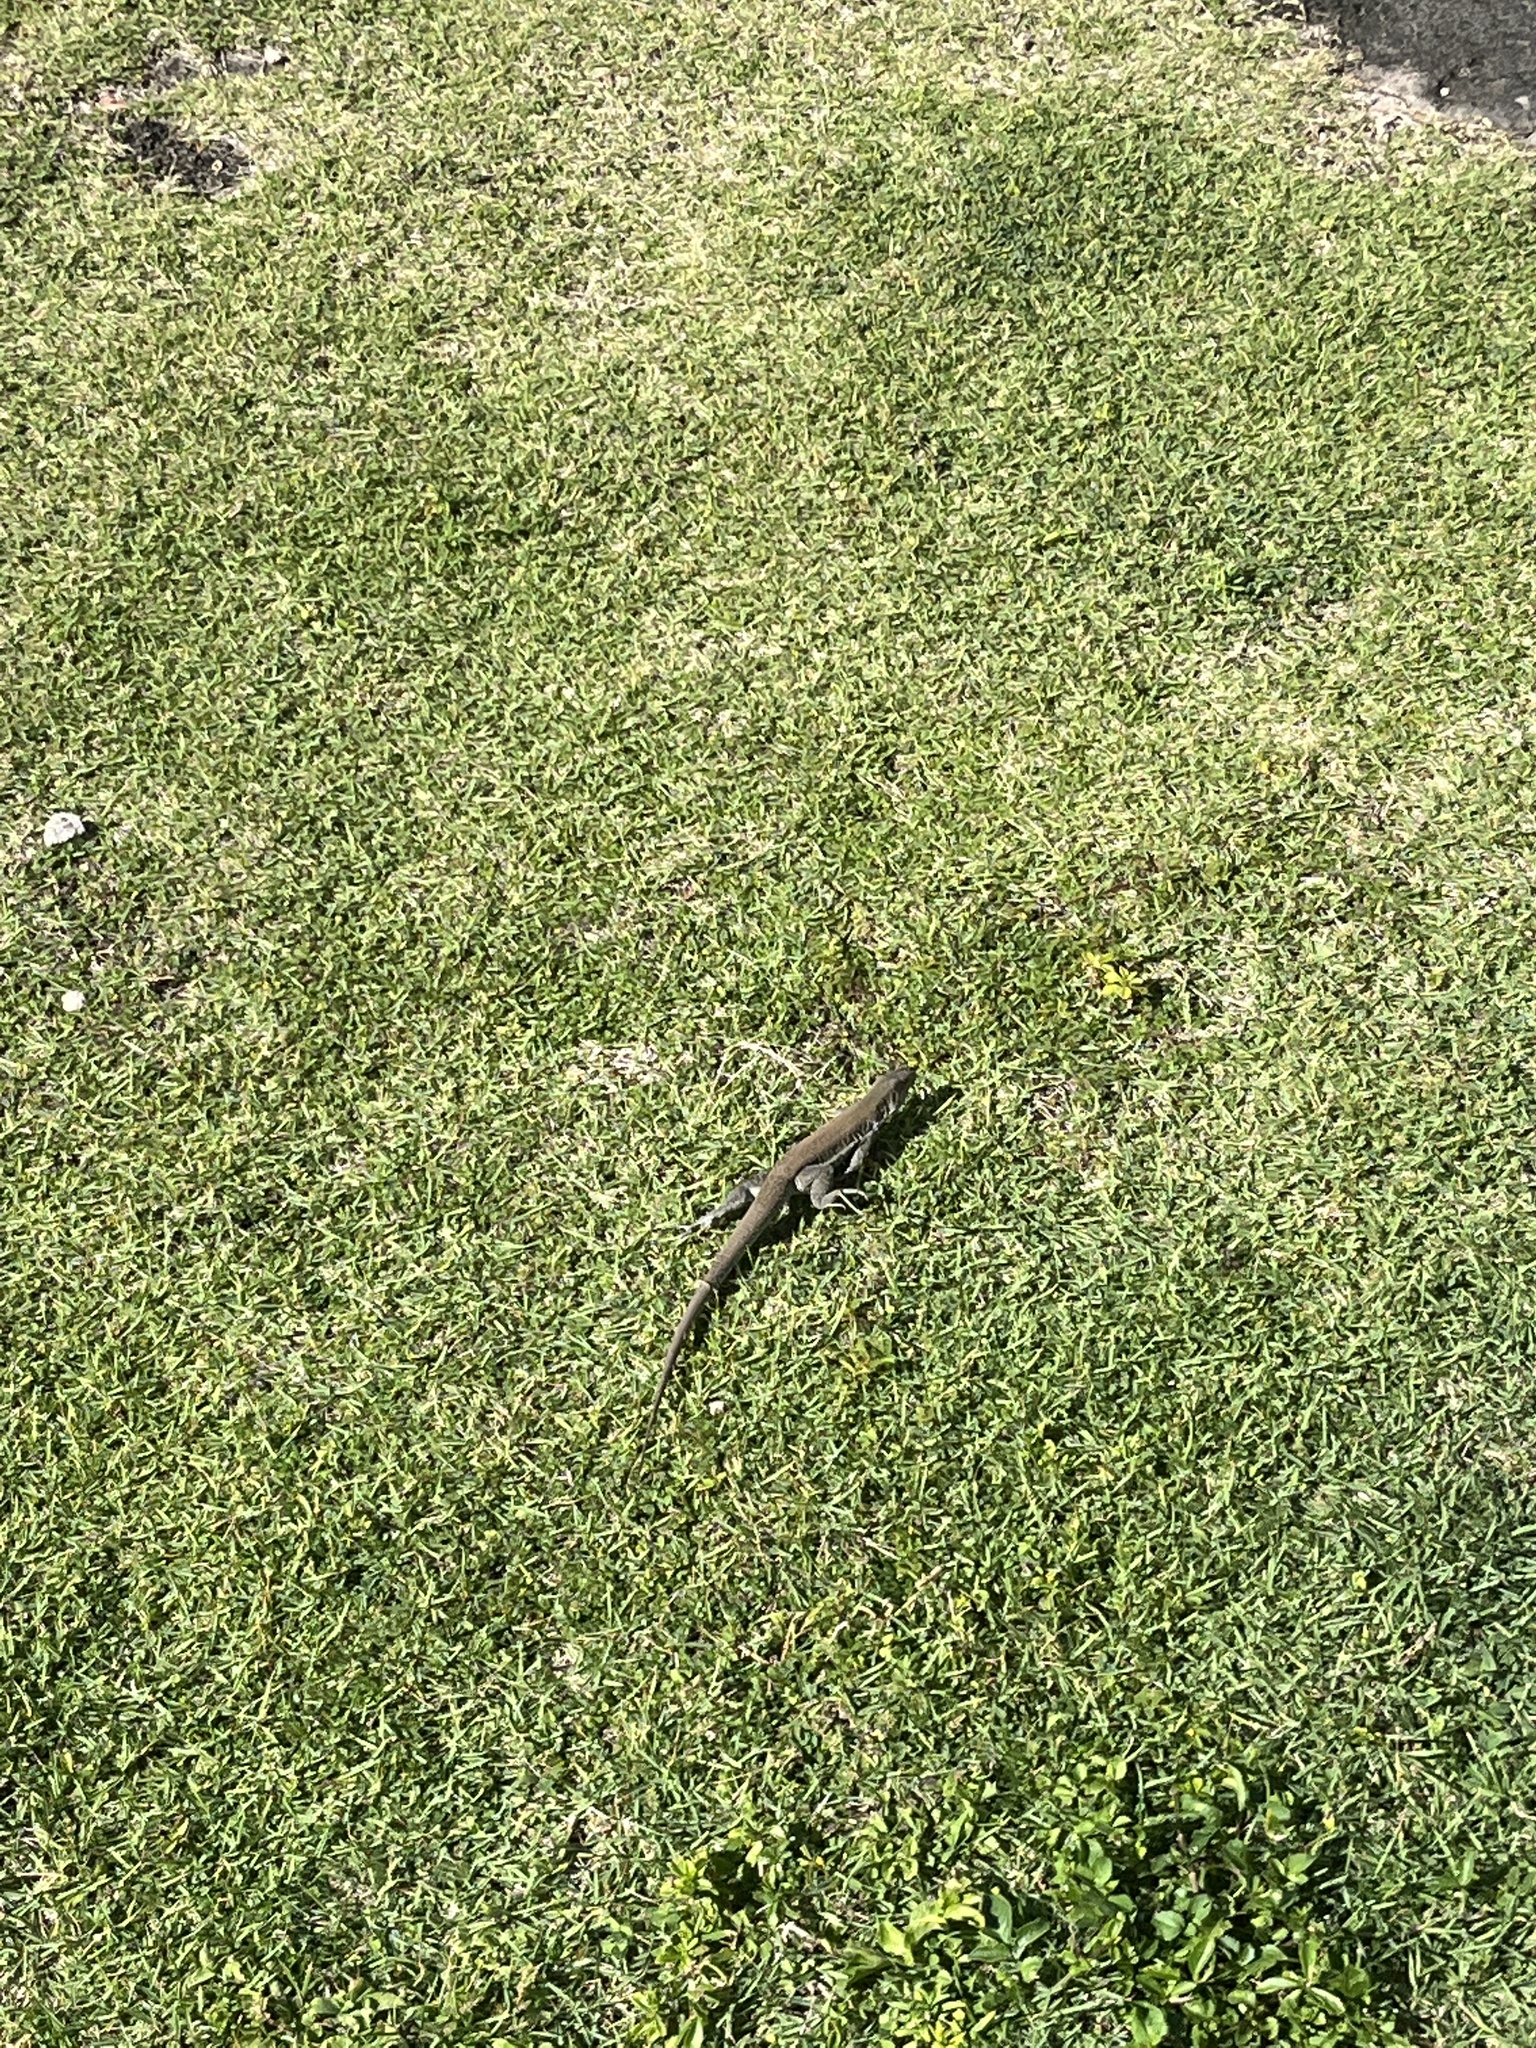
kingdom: Animalia
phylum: Chordata
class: Squamata
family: Teiidae
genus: Pholidoscelis
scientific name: Pholidoscelis exsul
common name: Common puerto rican ameiva
